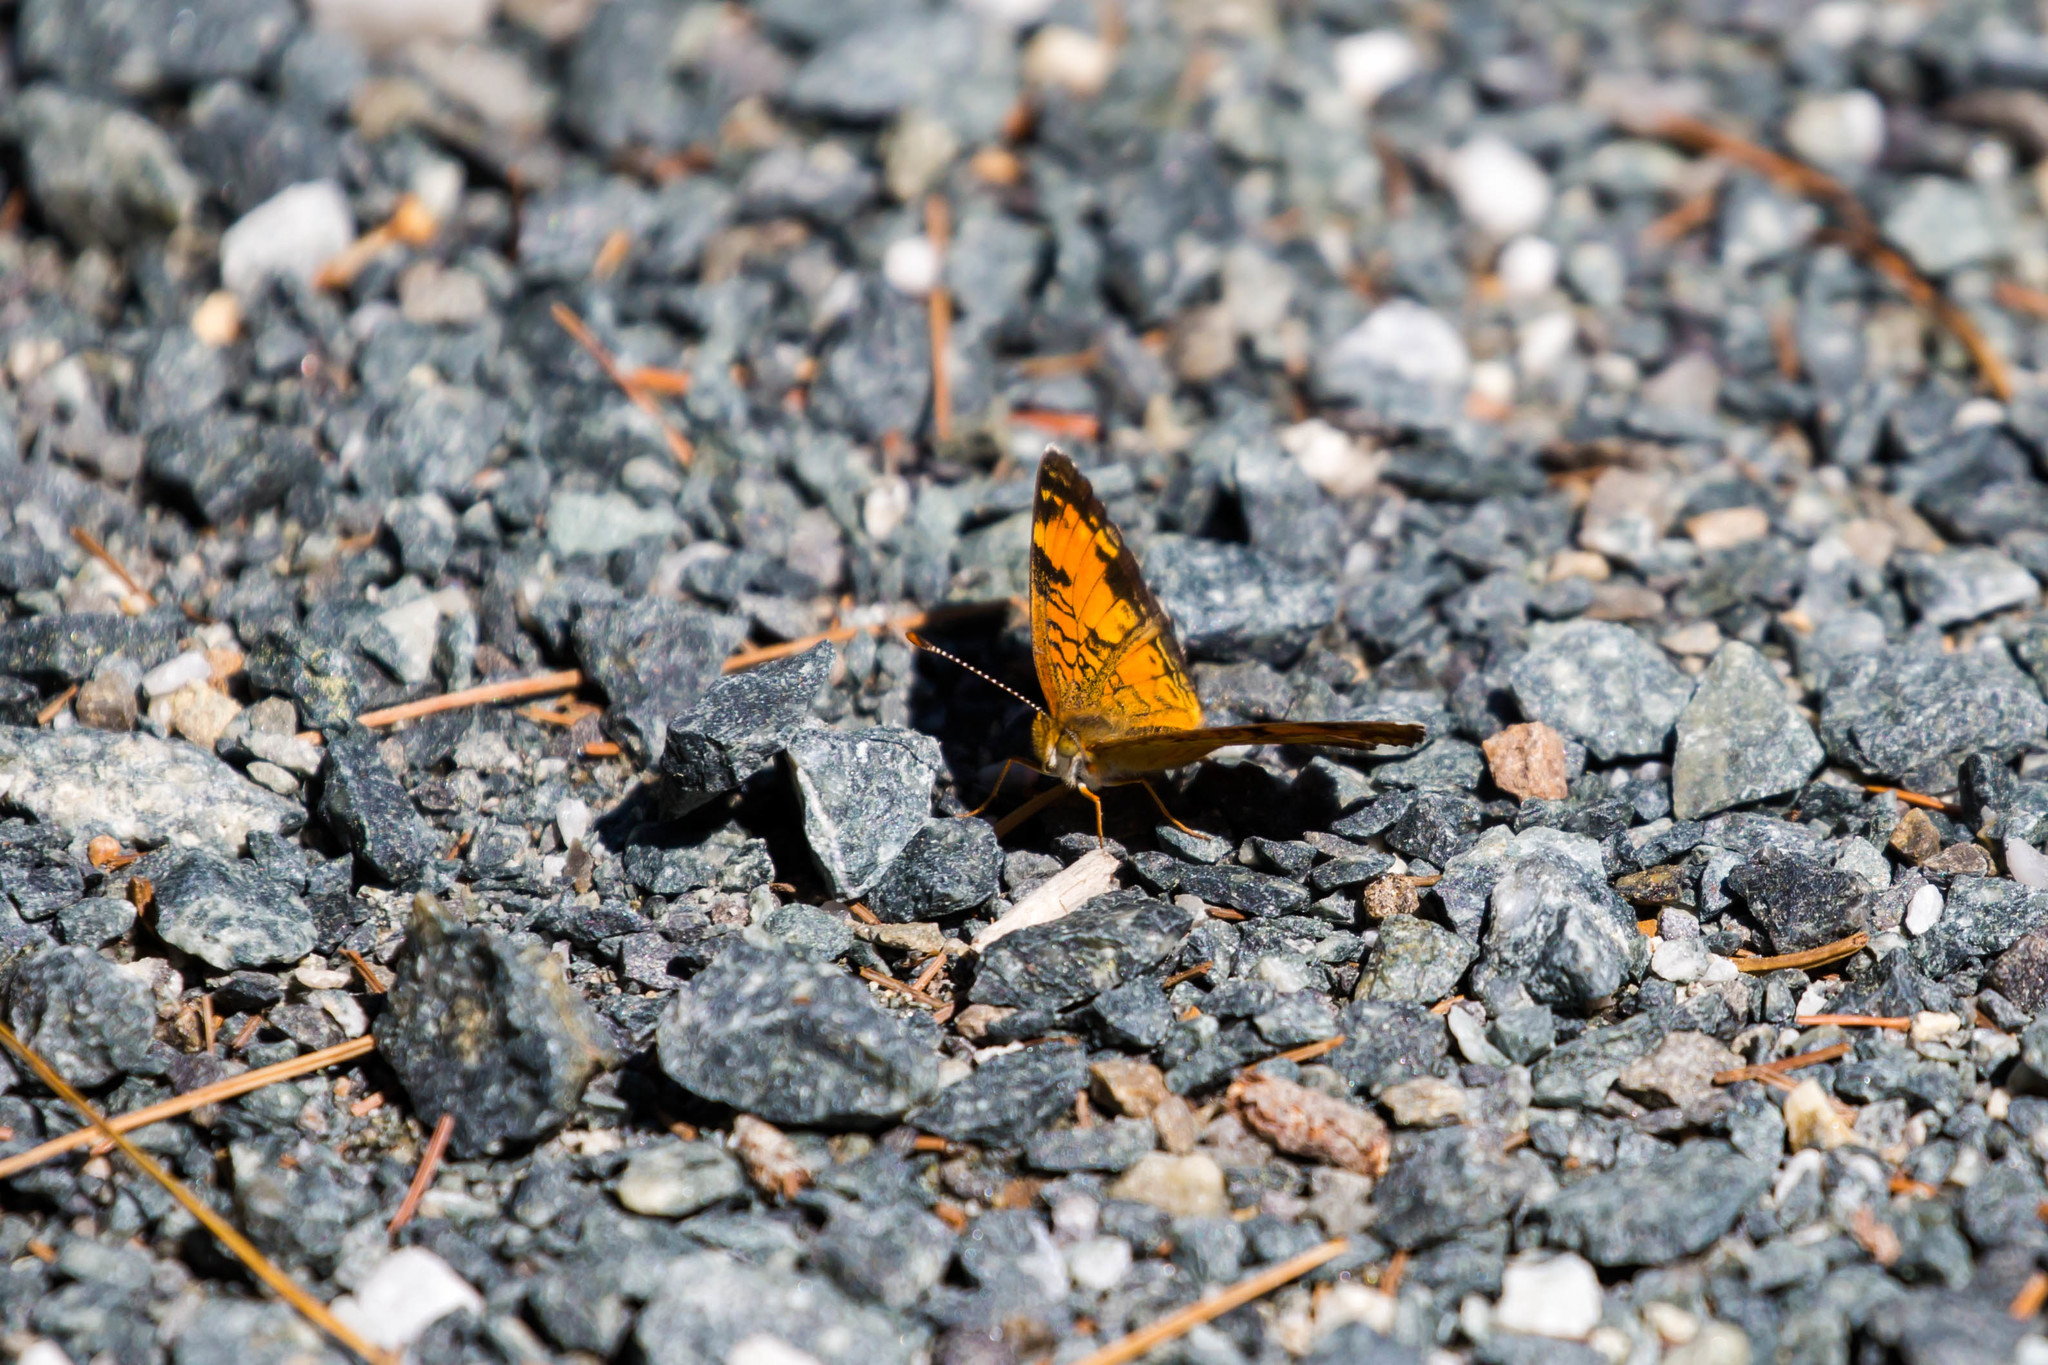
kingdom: Animalia
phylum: Arthropoda
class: Insecta
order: Lepidoptera
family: Nymphalidae
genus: Phyciodes
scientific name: Phyciodes tharos
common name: Pearl crescent
